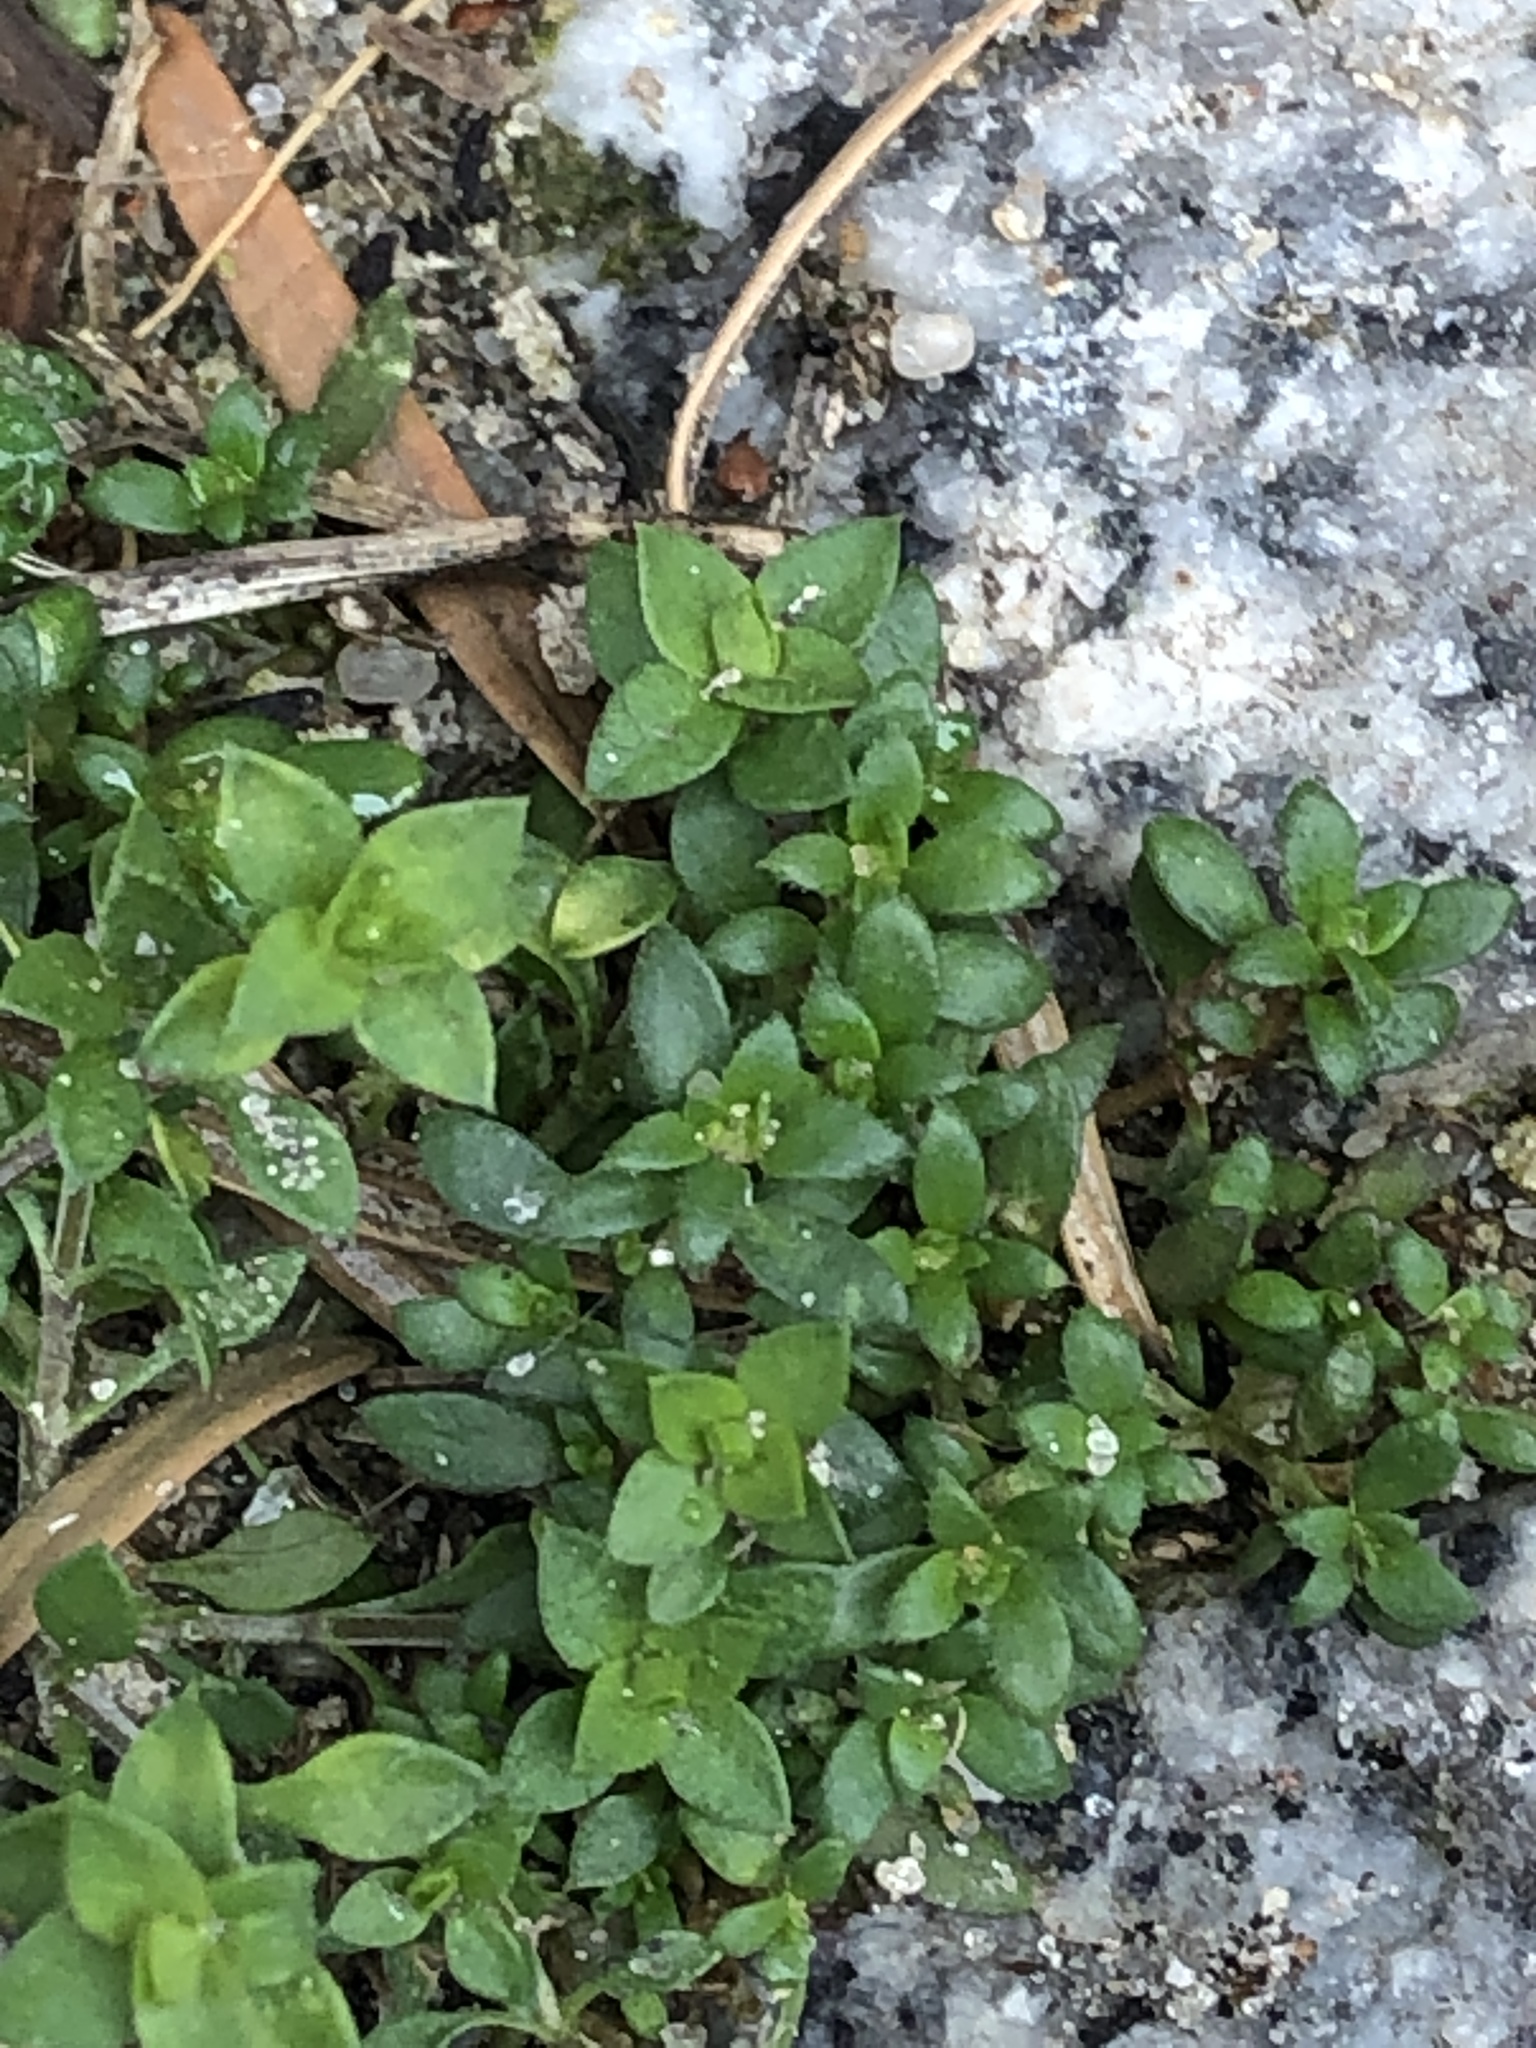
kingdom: Plantae
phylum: Tracheophyta
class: Magnoliopsida
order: Caryophyllales
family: Caryophyllaceae
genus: Stellaria
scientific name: Stellaria media
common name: Common chickweed
